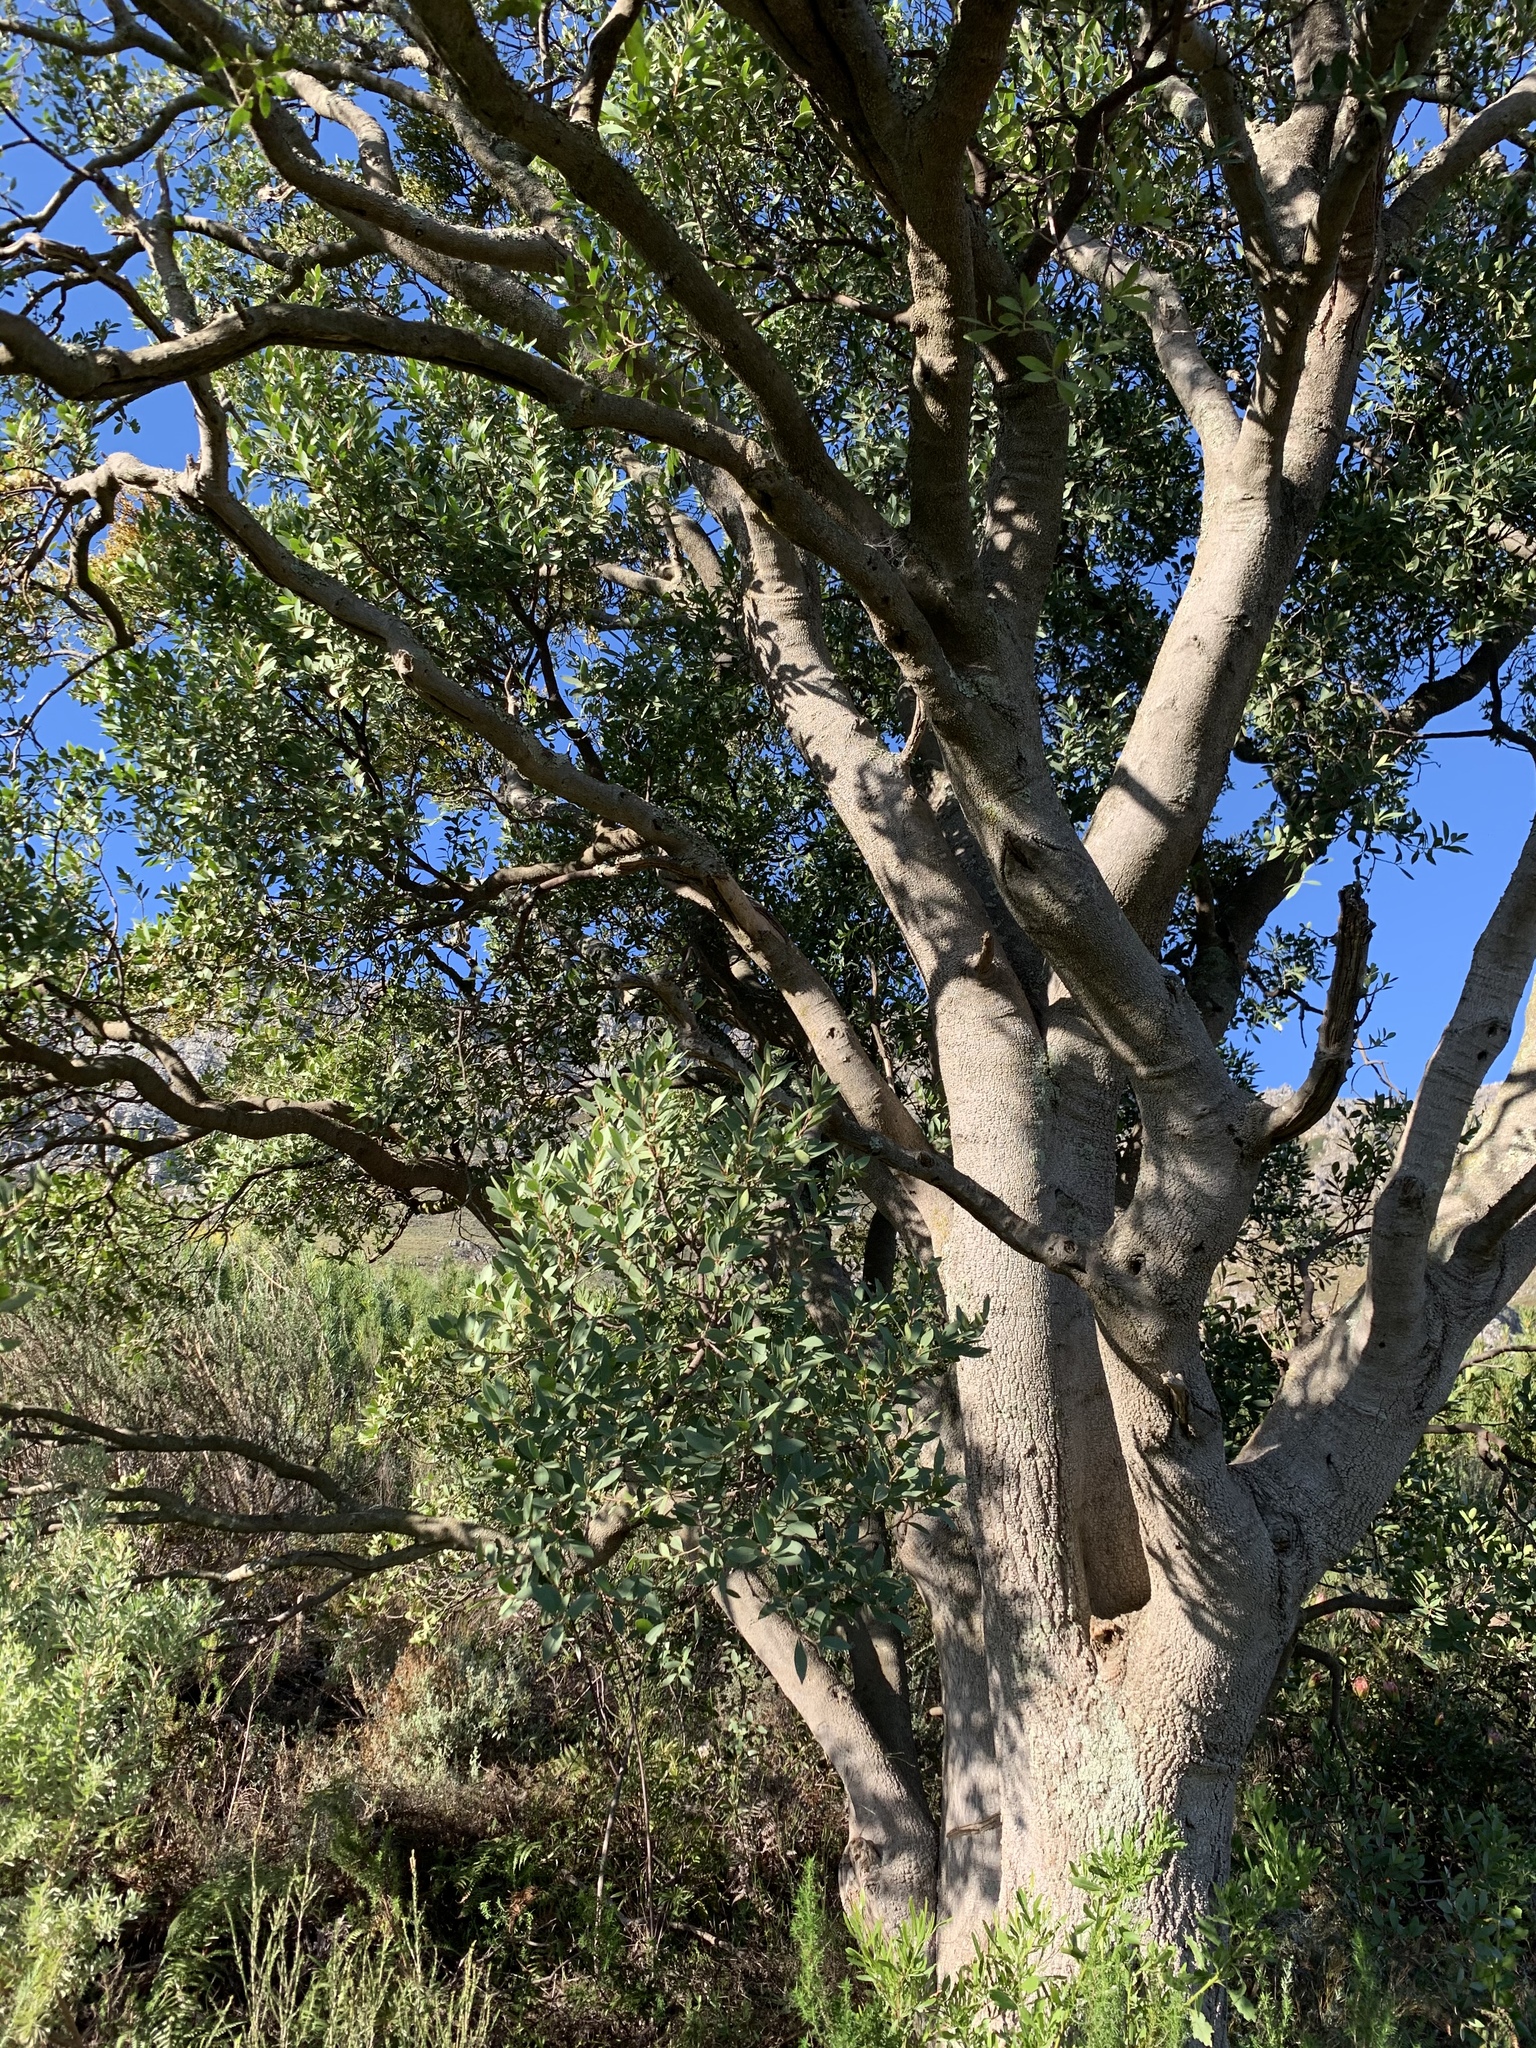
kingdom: Plantae
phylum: Tracheophyta
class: Magnoliopsida
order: Celastrales
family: Celastraceae
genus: Gymnosporia
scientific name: Gymnosporia laurina
